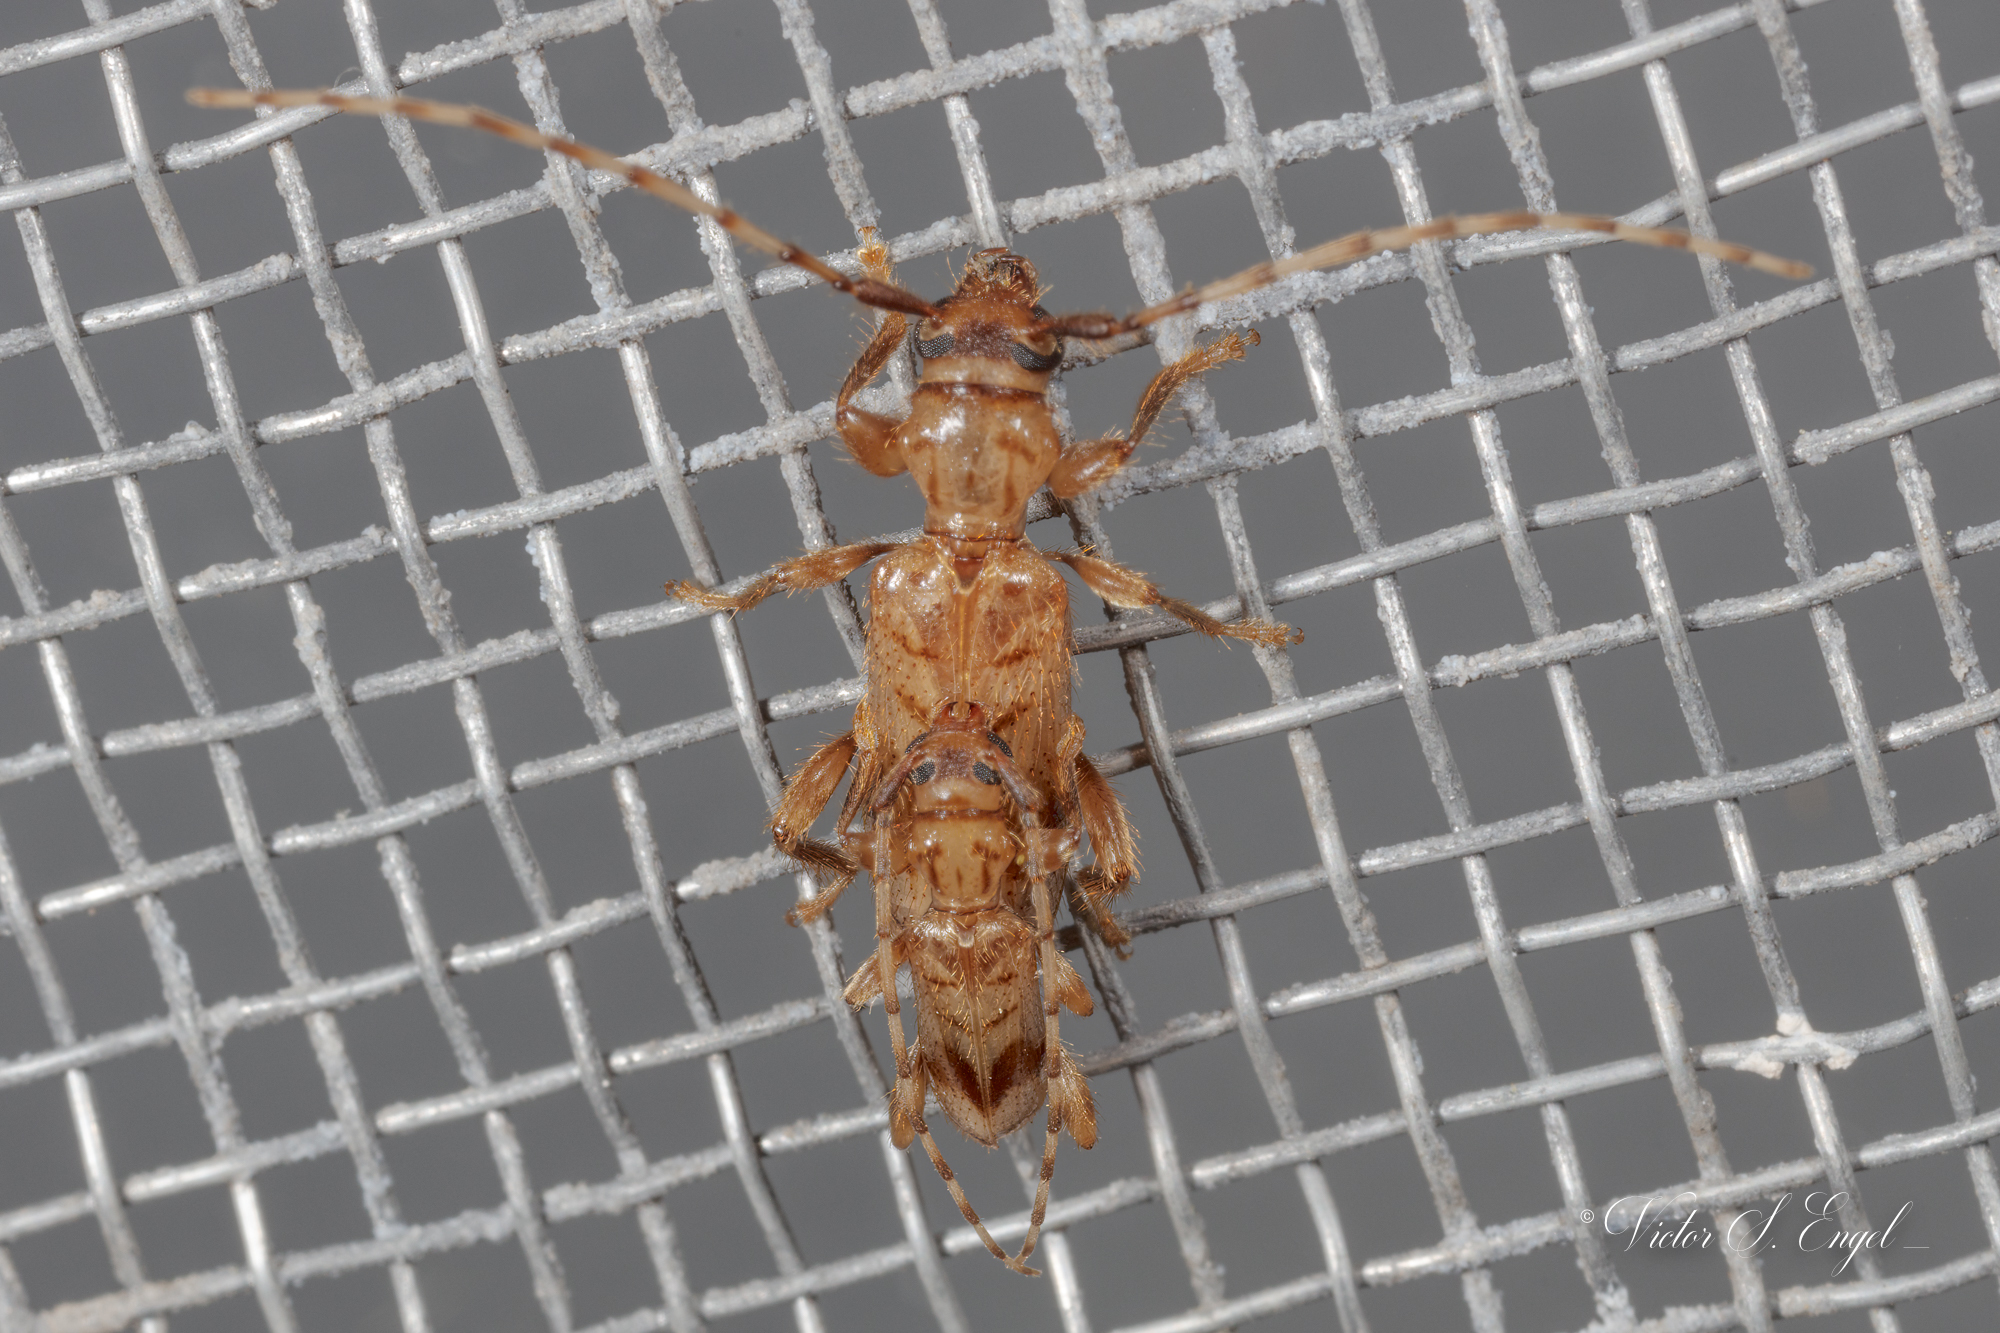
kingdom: Animalia
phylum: Arthropoda
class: Insecta
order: Coleoptera
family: Cerambycidae
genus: Obrium
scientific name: Obrium maculatum
